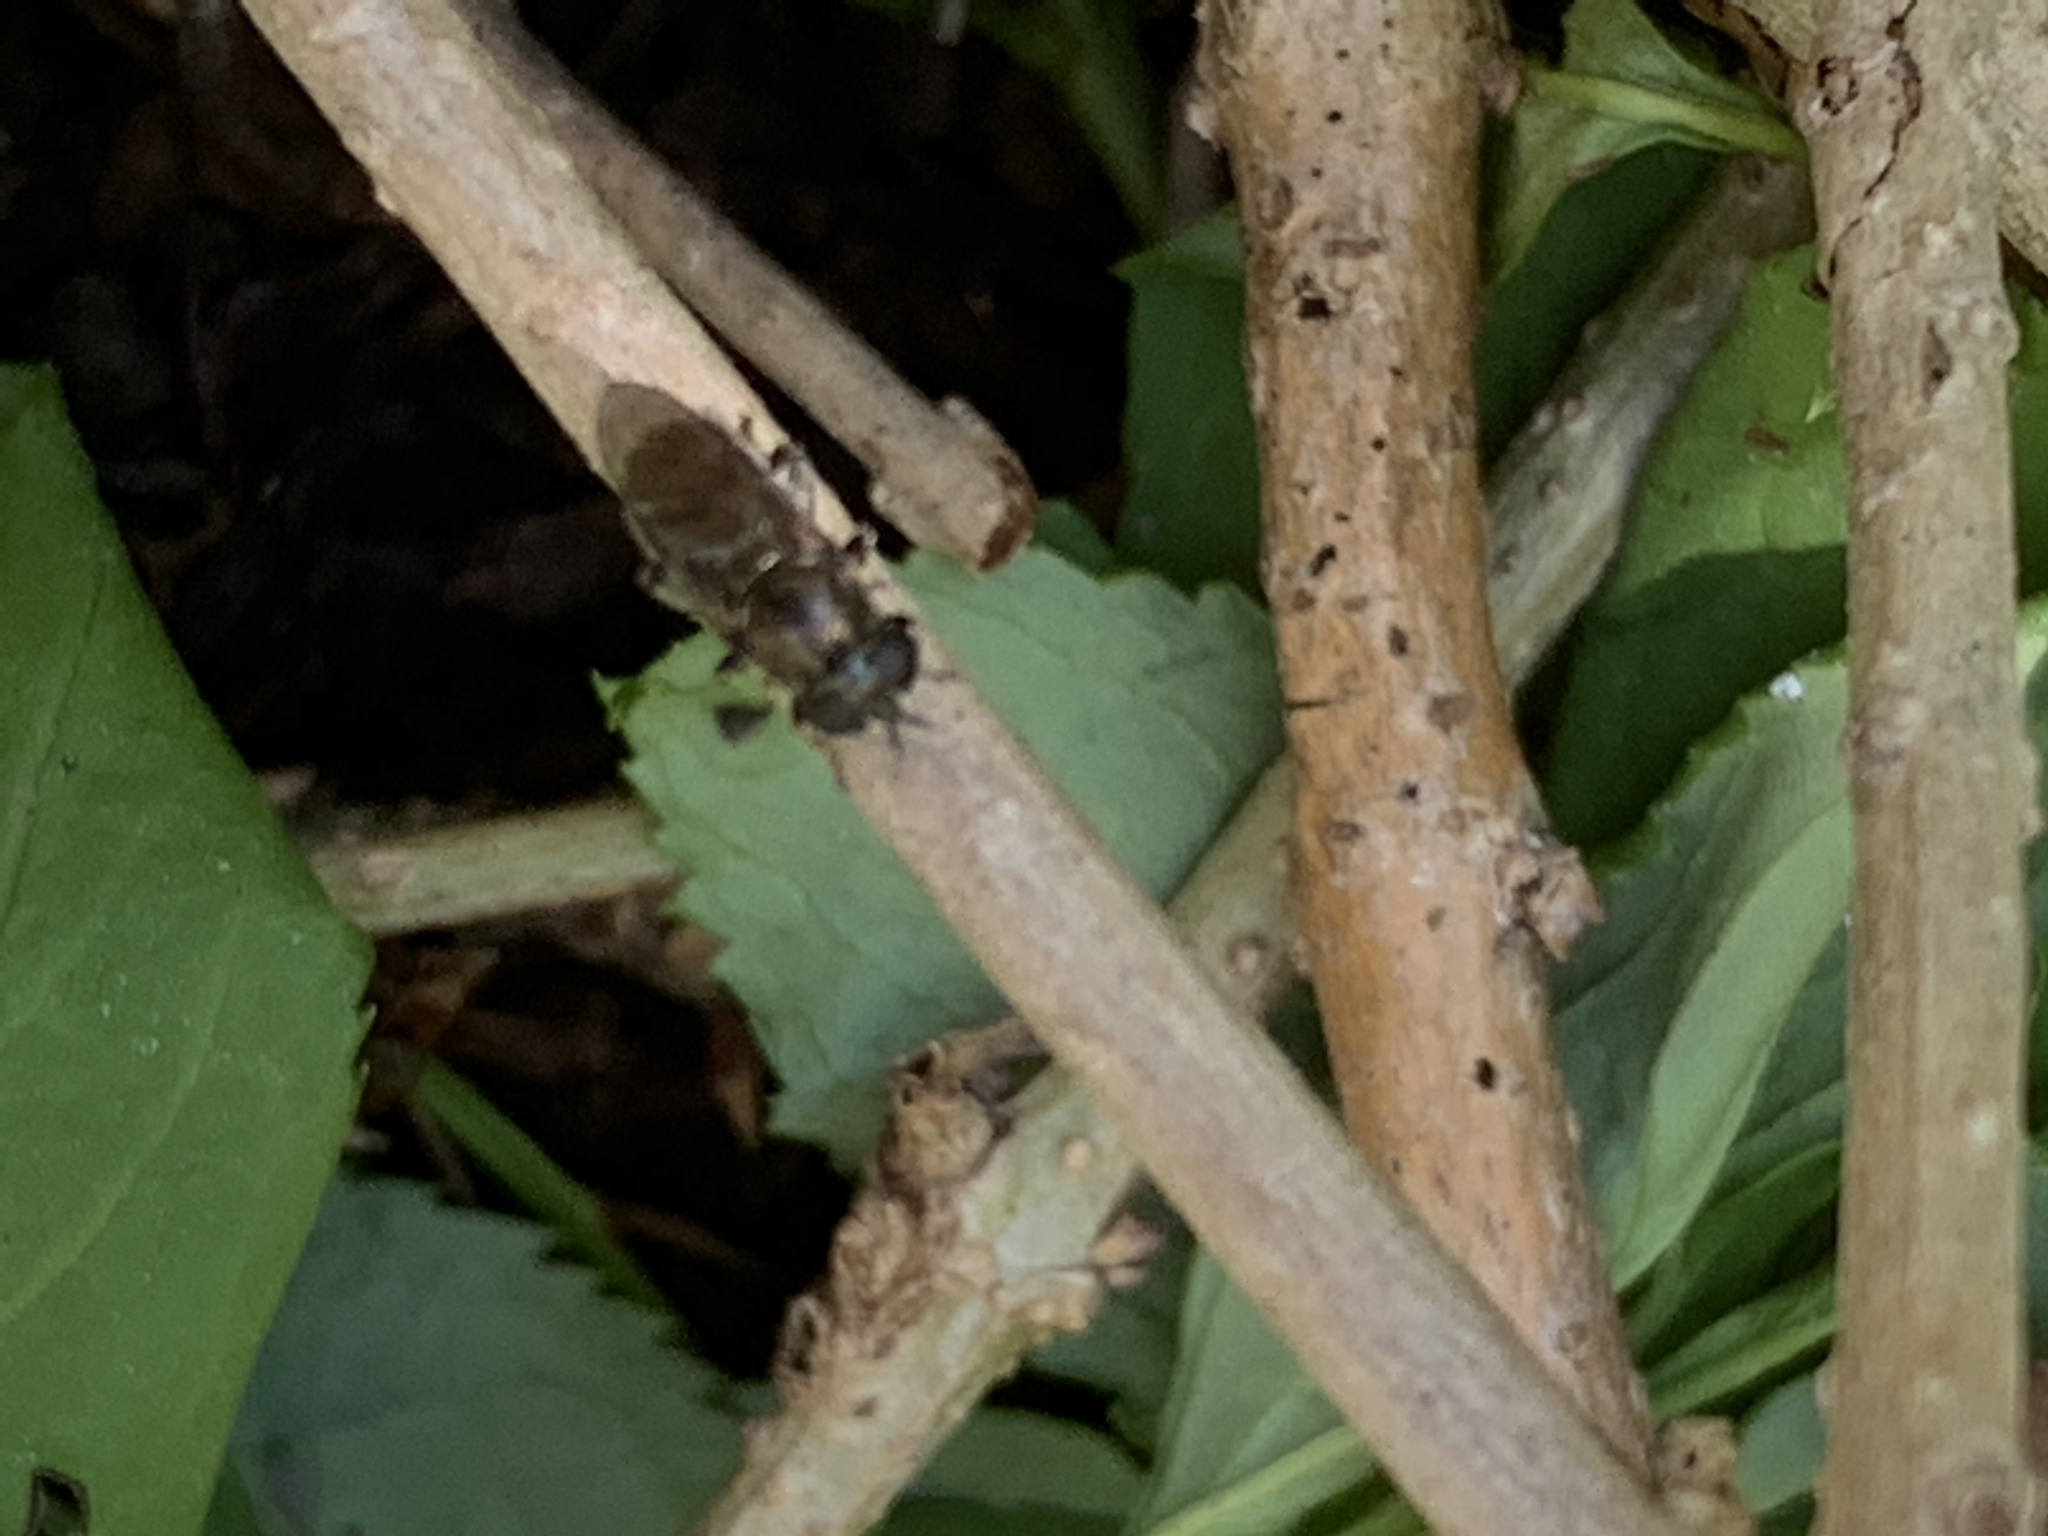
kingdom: Animalia
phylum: Arthropoda
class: Insecta
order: Diptera
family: Syrphidae
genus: Eumerus
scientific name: Eumerus
